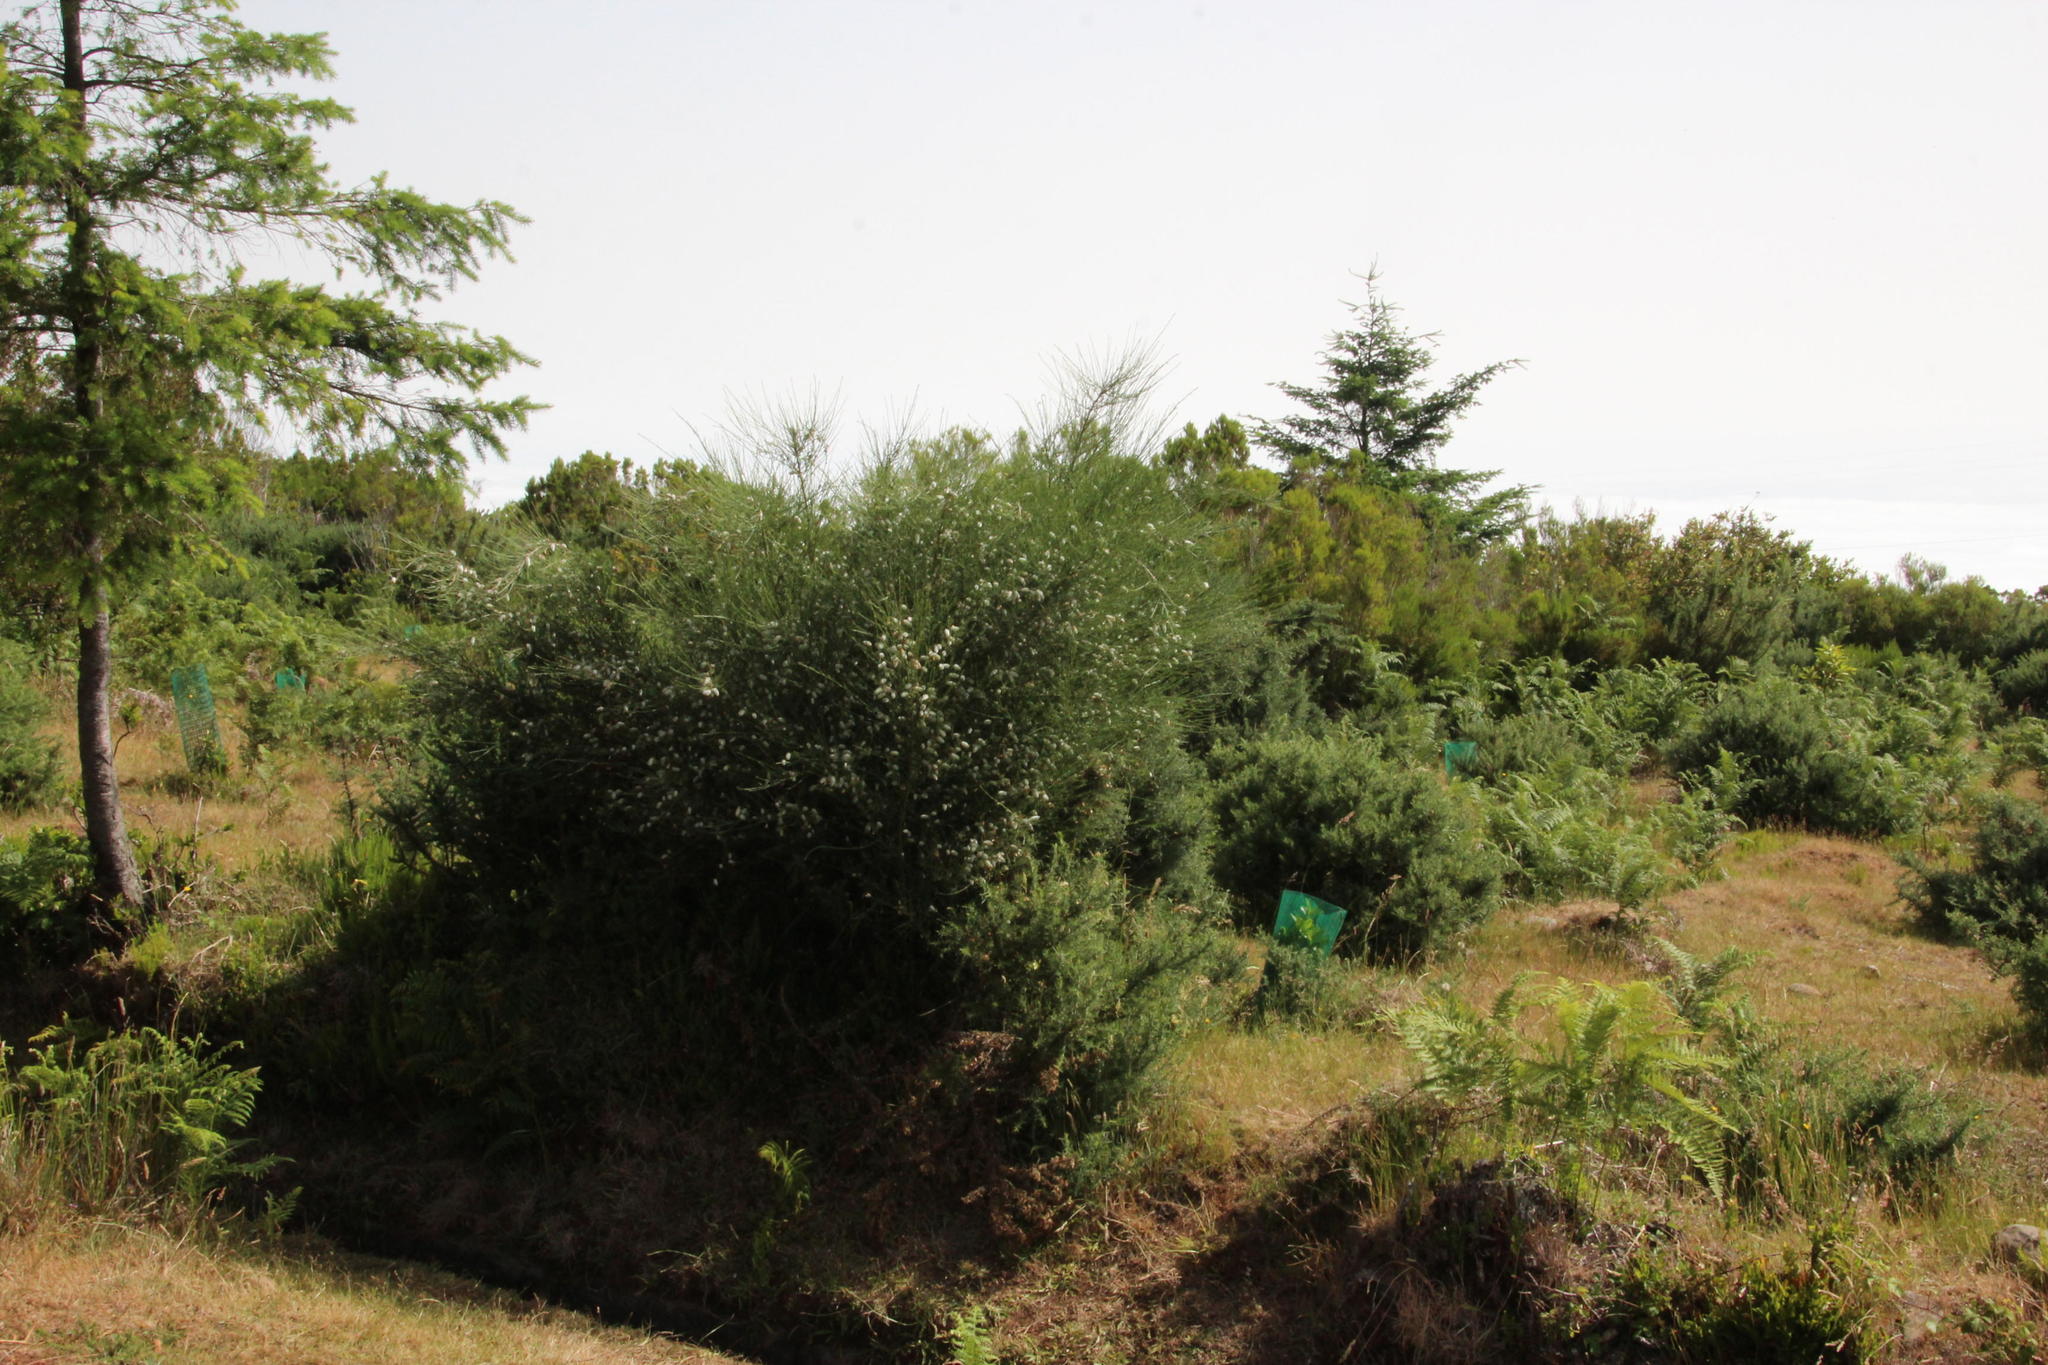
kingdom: Plantae
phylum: Tracheophyta
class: Magnoliopsida
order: Fabales
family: Fabaceae
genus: Cytisus
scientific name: Cytisus striatus
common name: Hairy-fruited broom
